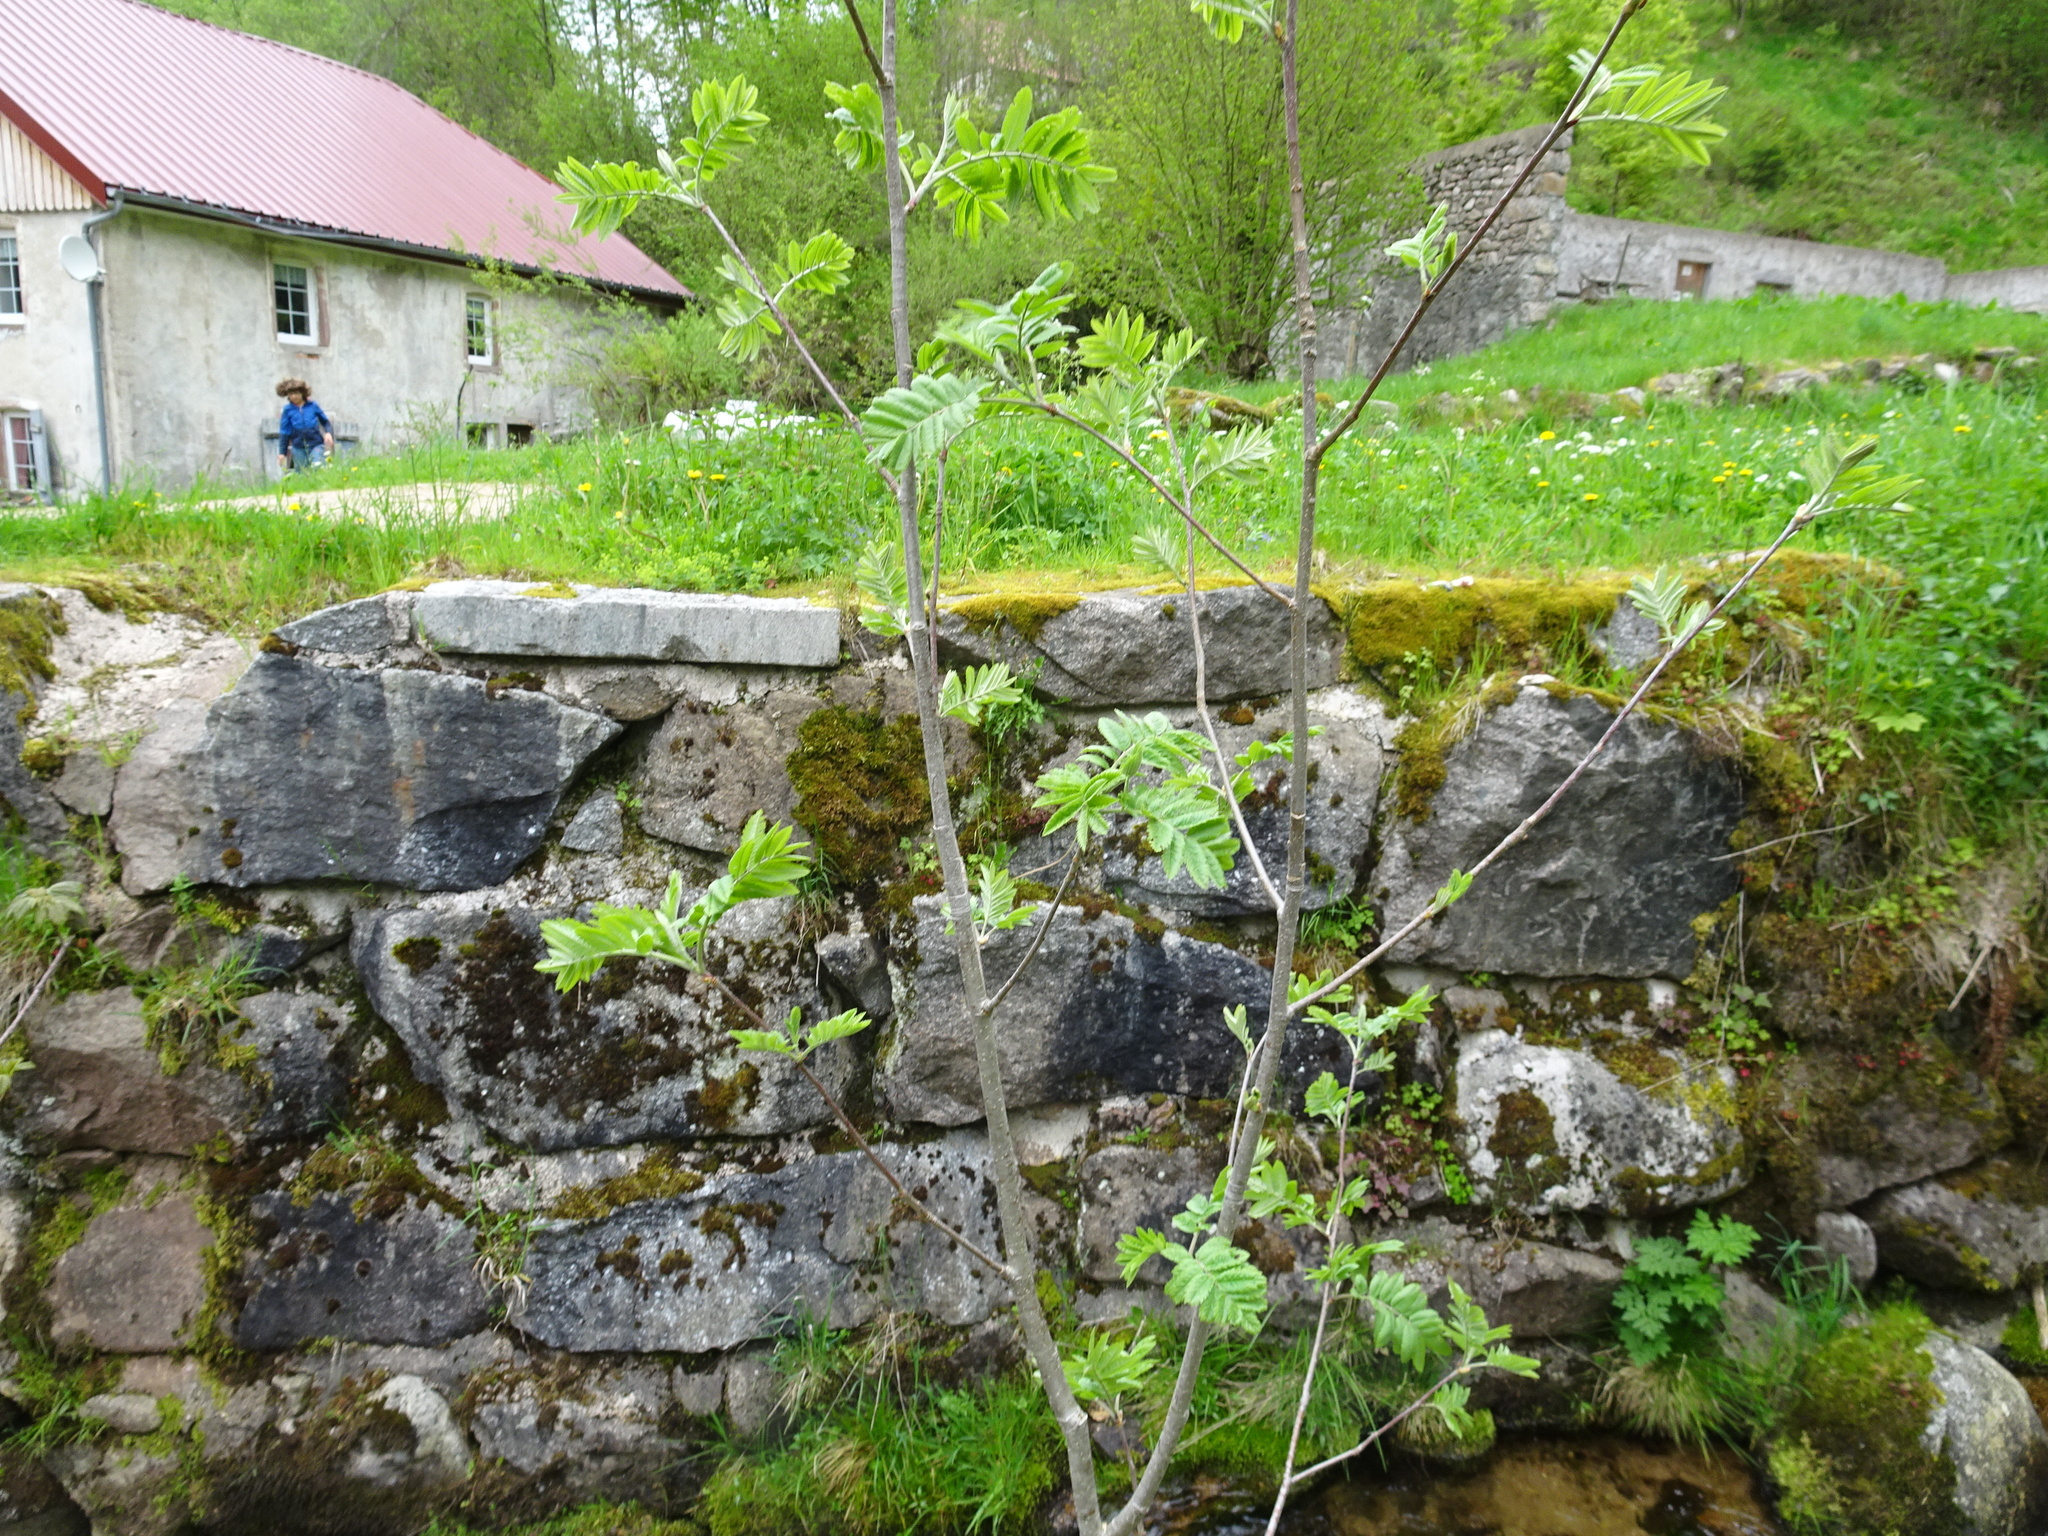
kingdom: Plantae
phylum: Tracheophyta
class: Magnoliopsida
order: Rosales
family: Rosaceae
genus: Sorbus
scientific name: Sorbus aucuparia
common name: Rowan
